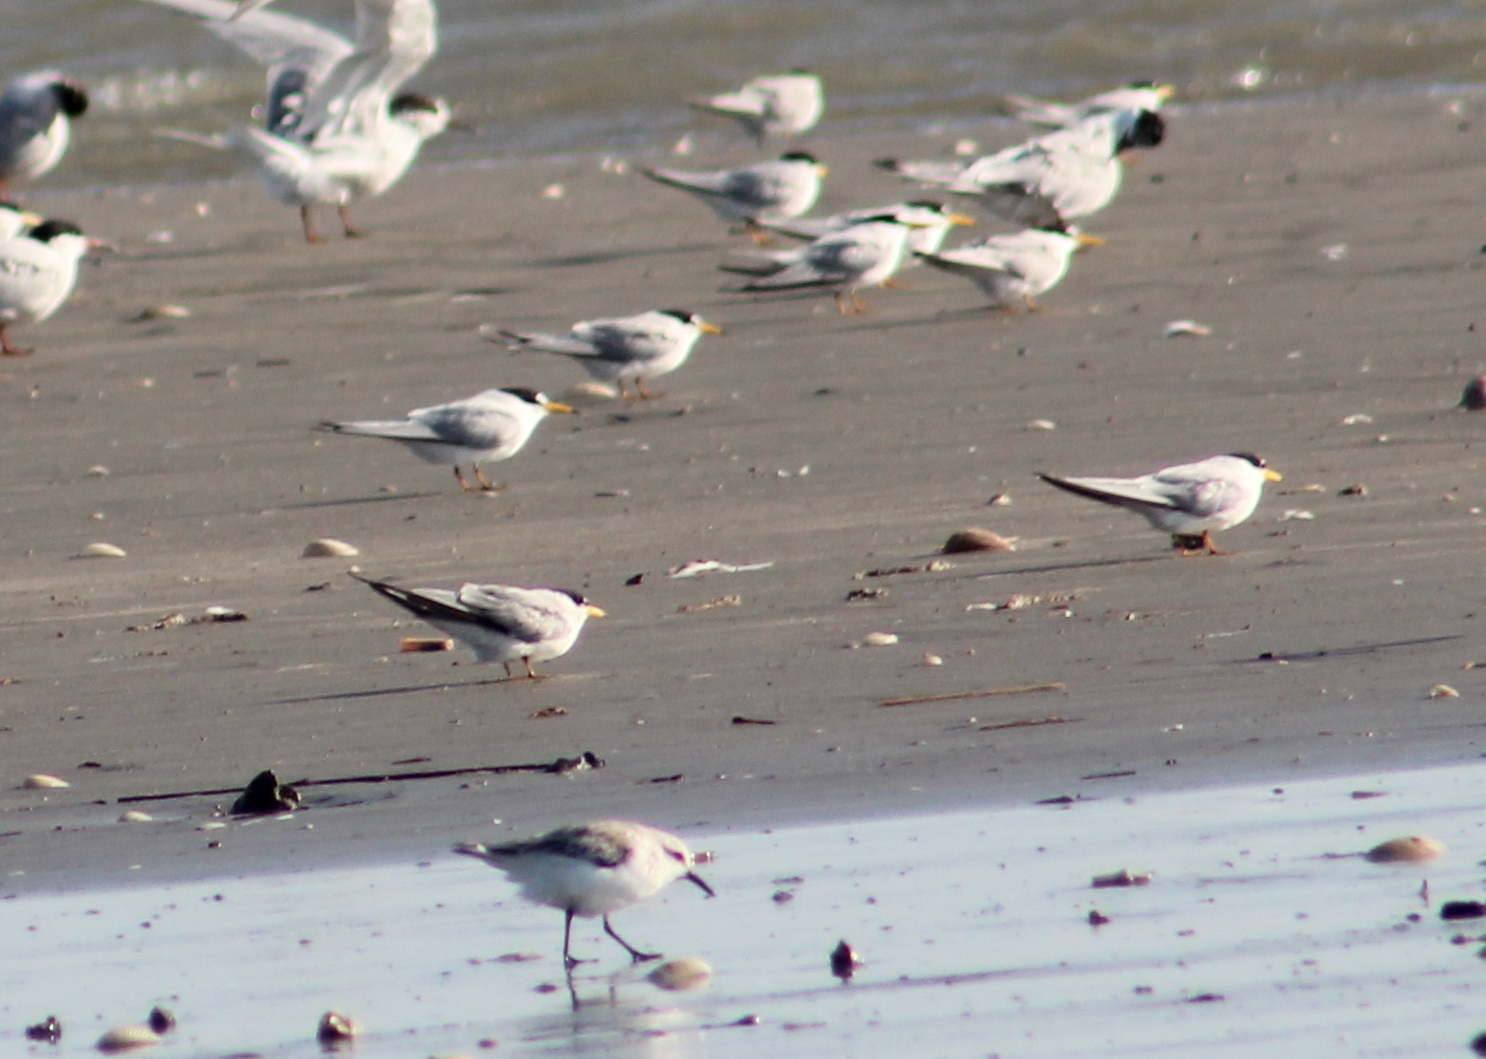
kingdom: Animalia
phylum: Chordata
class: Aves
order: Charadriiformes
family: Laridae
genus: Sternula
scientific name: Sternula antillarum
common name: Least tern
